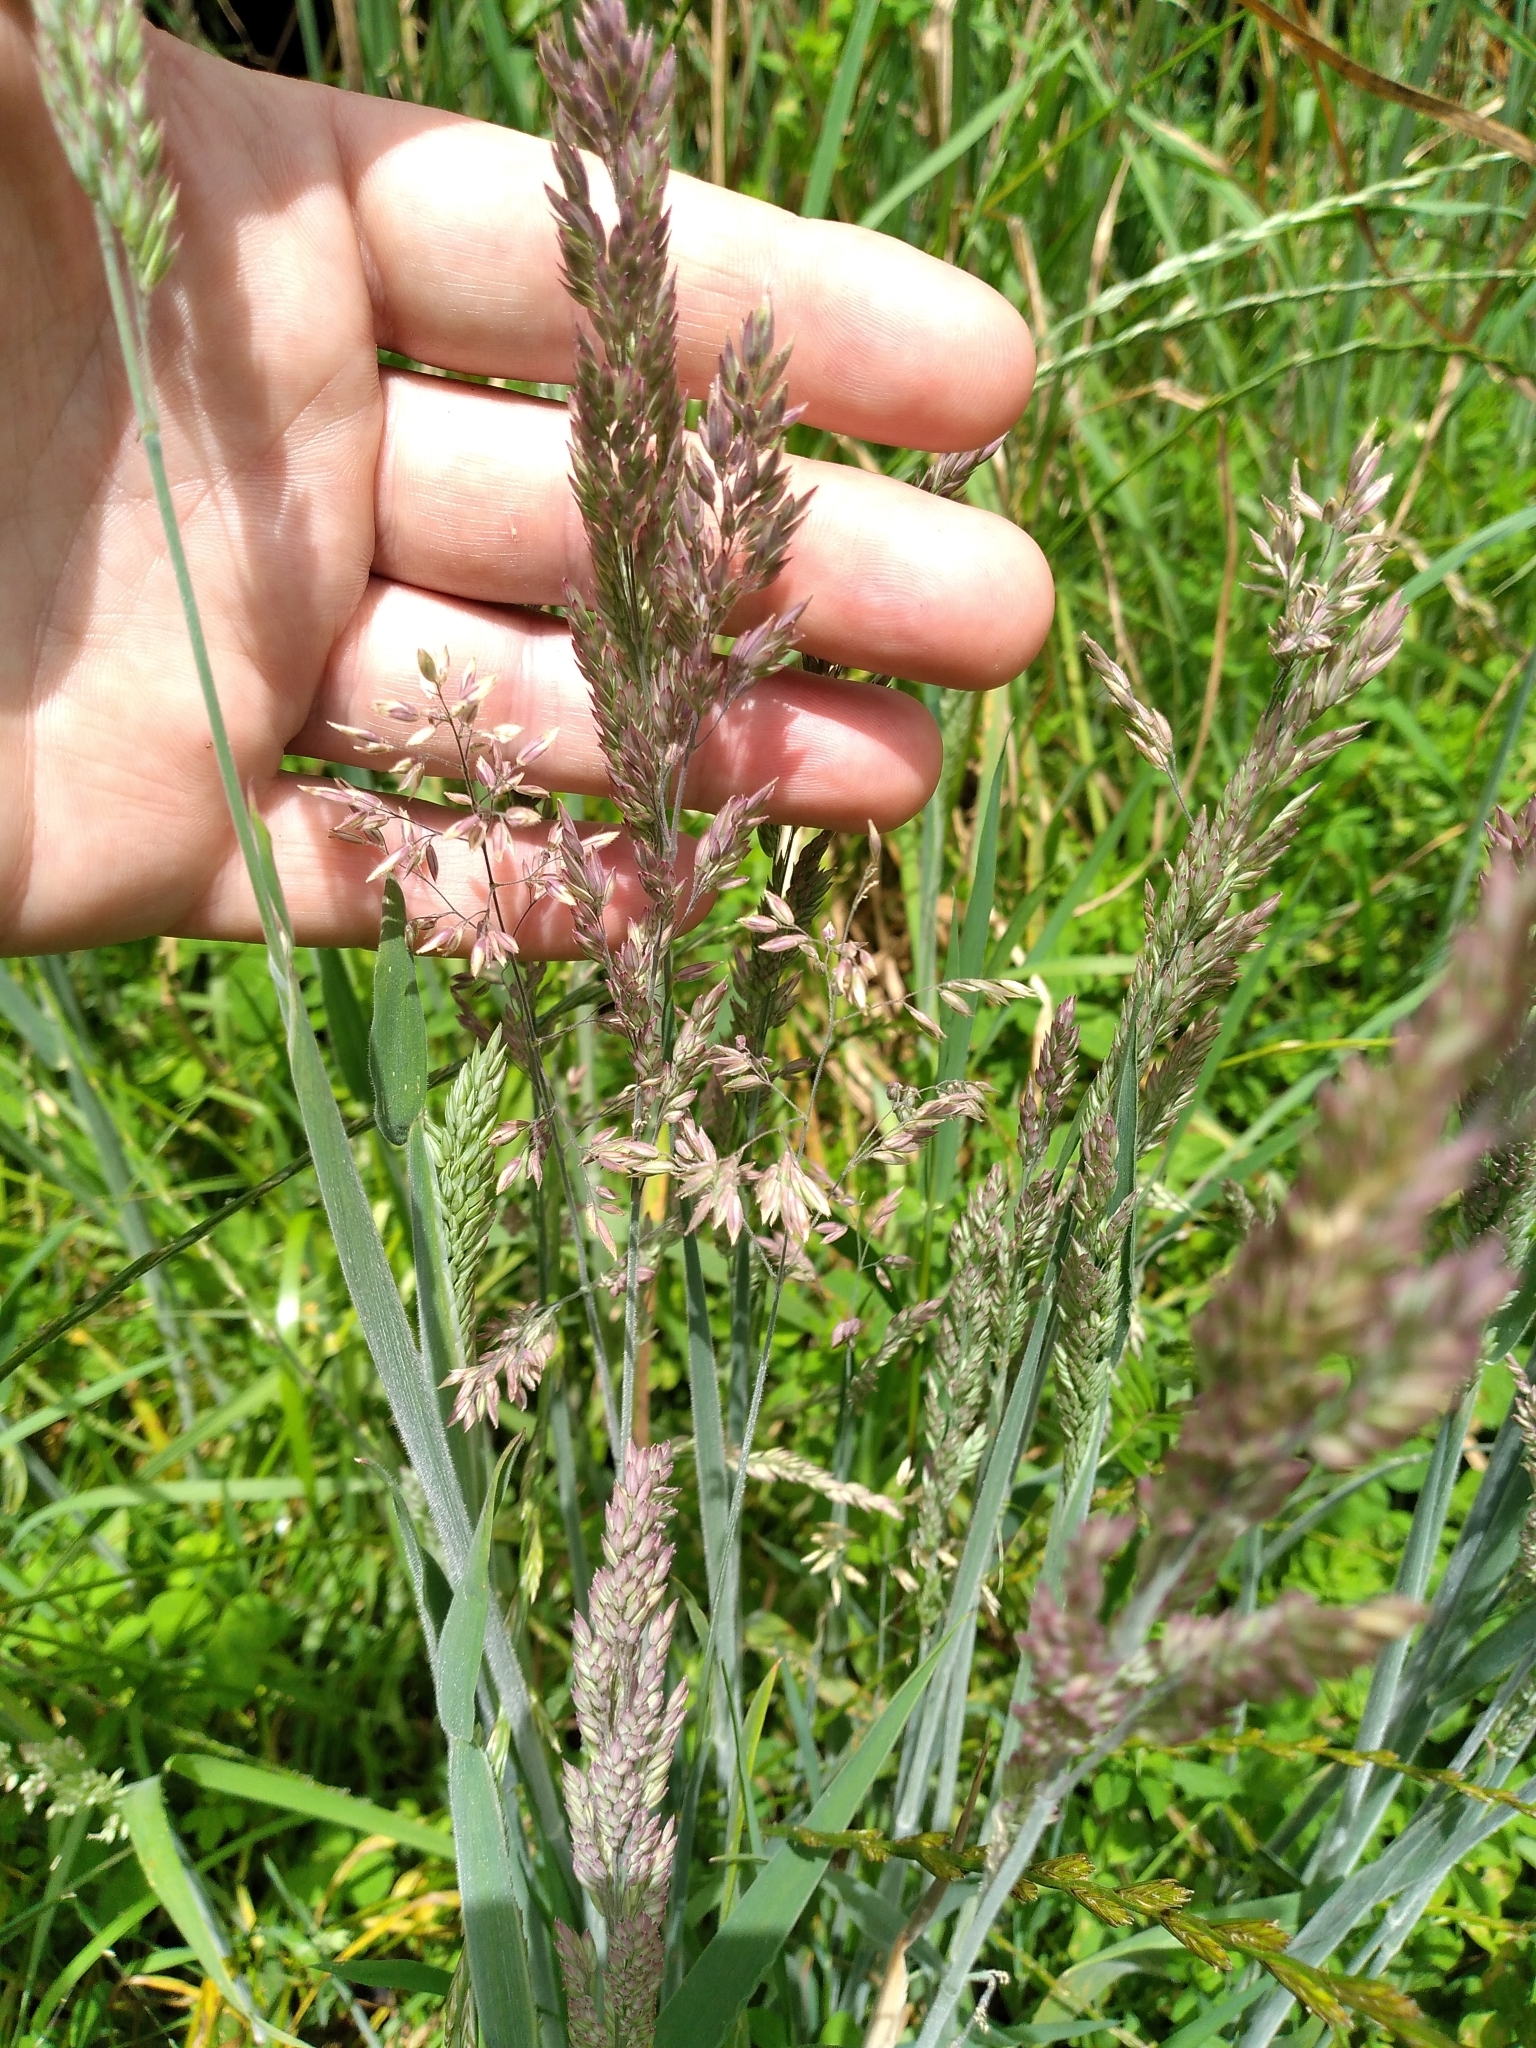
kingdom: Plantae
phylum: Tracheophyta
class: Liliopsida
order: Poales
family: Poaceae
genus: Holcus
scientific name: Holcus lanatus
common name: Yorkshire-fog
